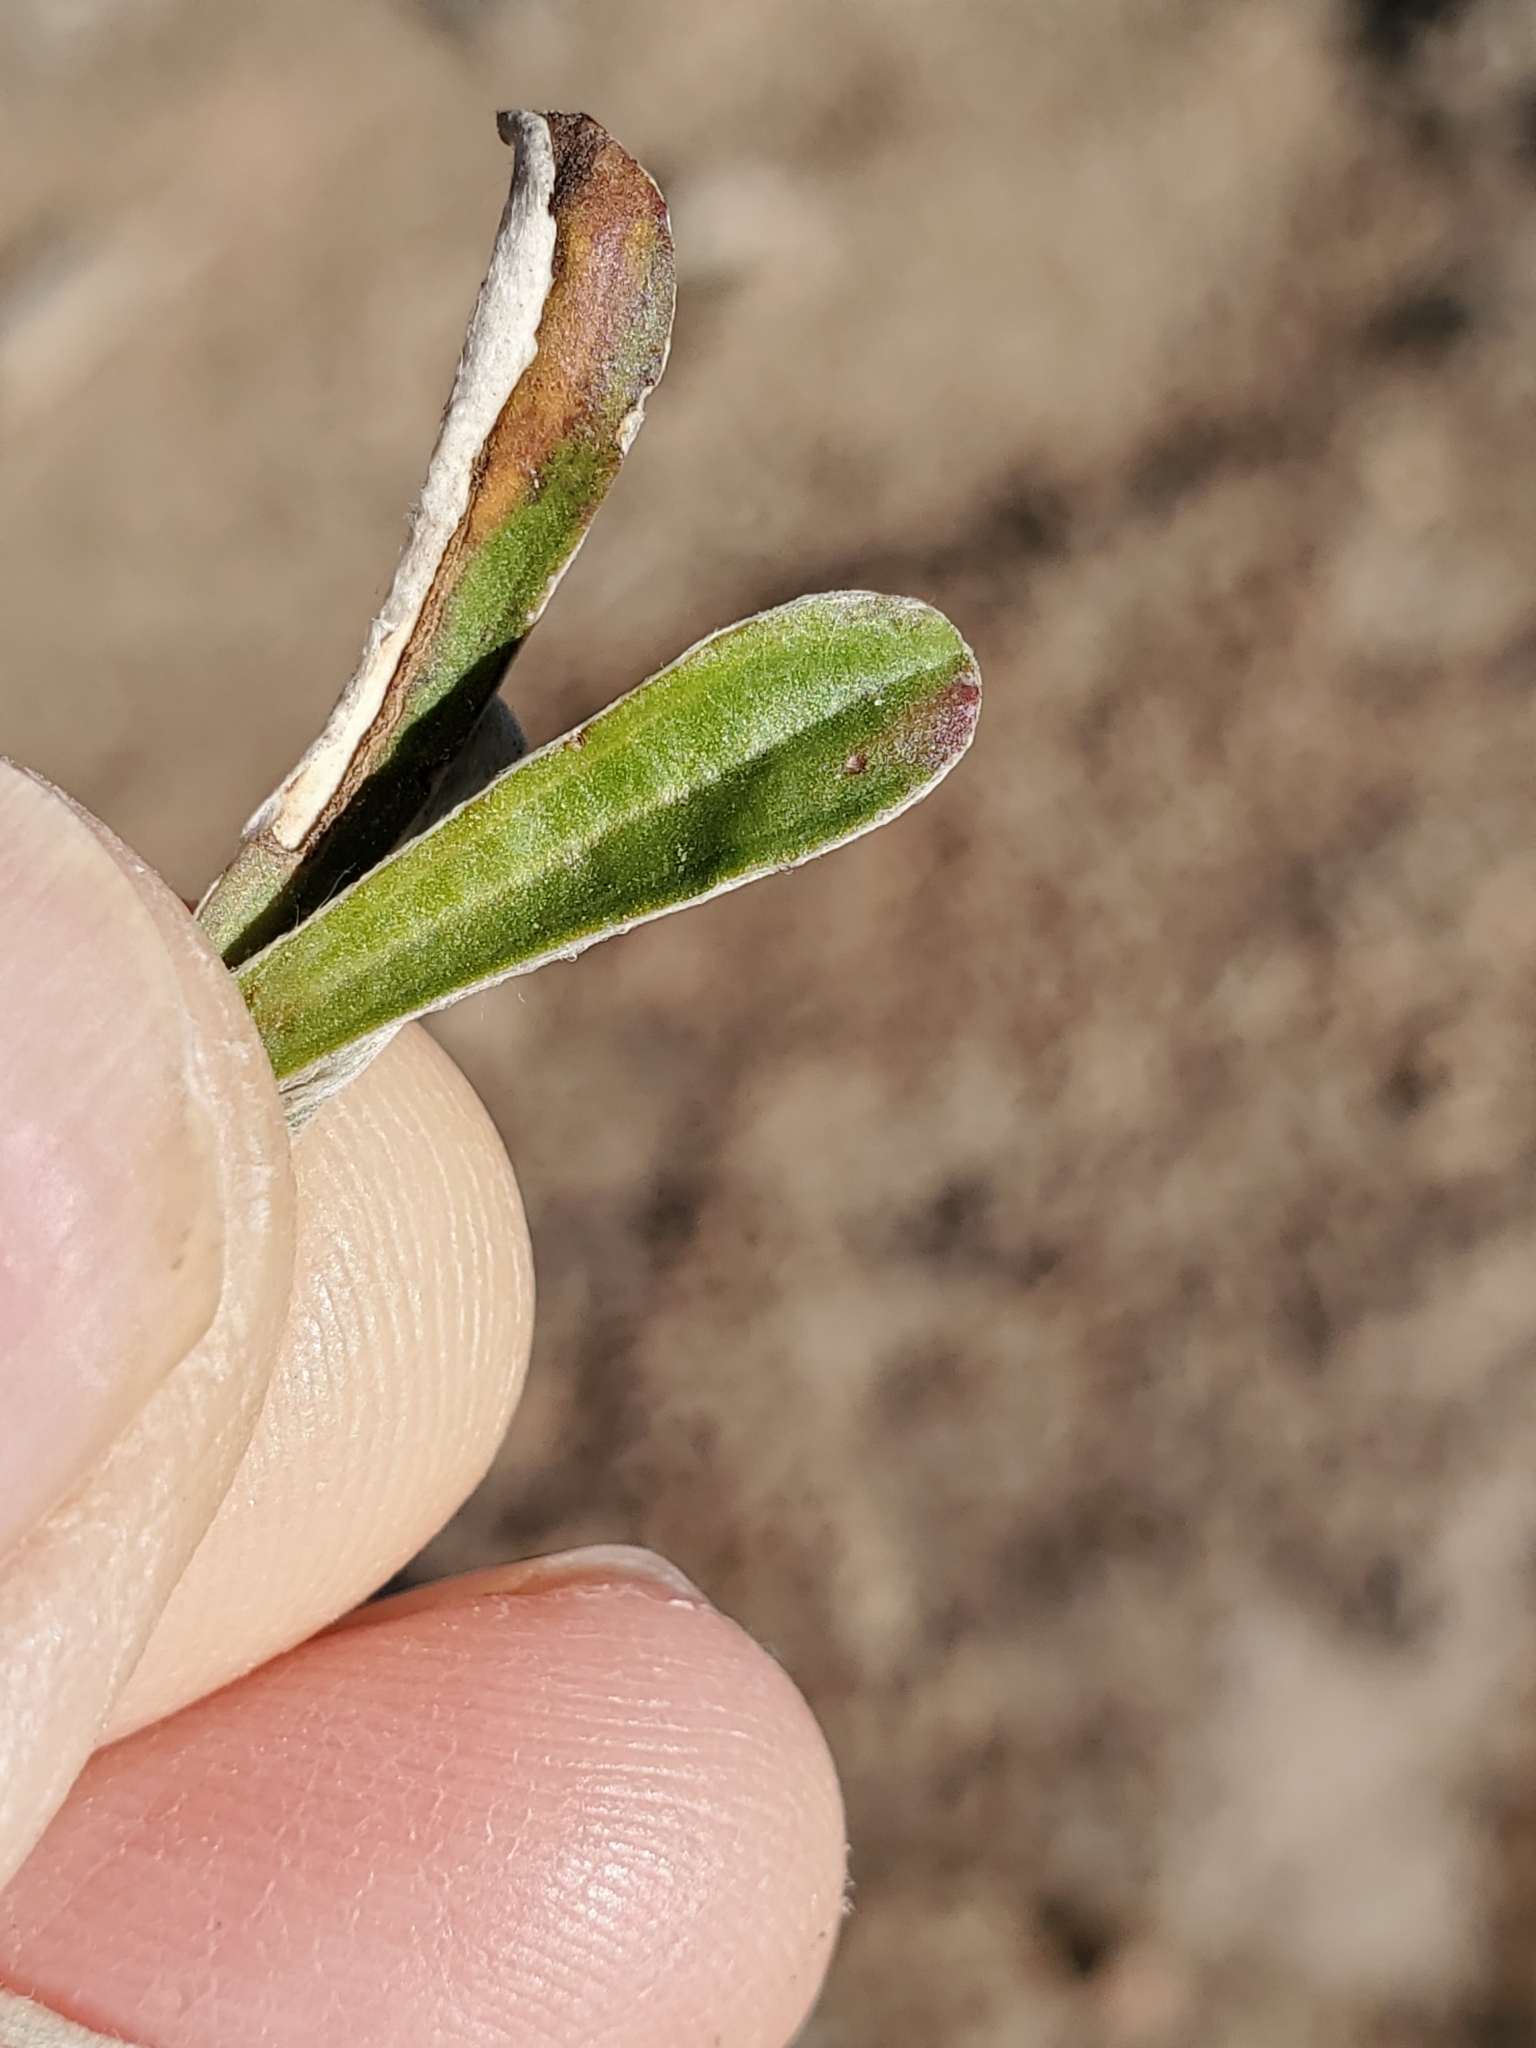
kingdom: Plantae
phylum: Tracheophyta
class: Magnoliopsida
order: Asterales
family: Asteraceae
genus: Antennaria
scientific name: Antennaria marginata
